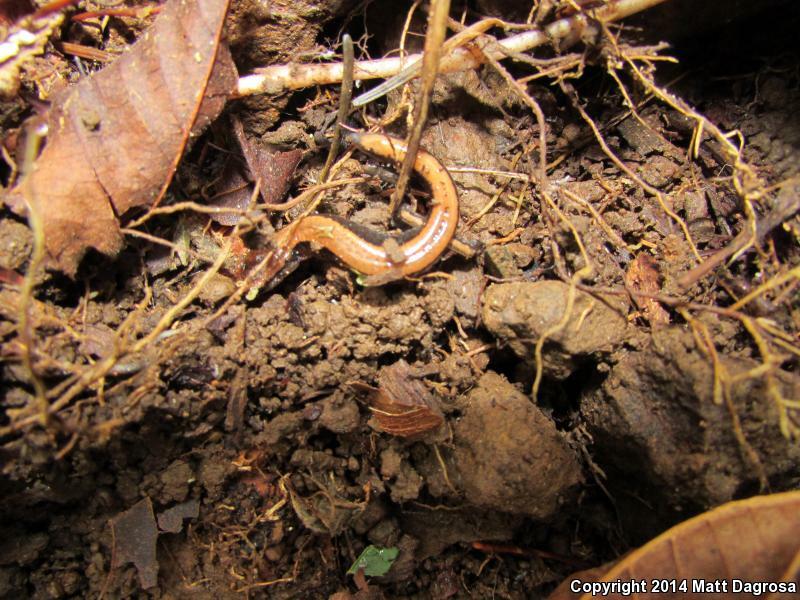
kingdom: Animalia
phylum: Chordata
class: Amphibia
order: Caudata
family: Plethodontidae
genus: Plethodon
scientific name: Plethodon vehiculum
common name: Western red-backed salamander
